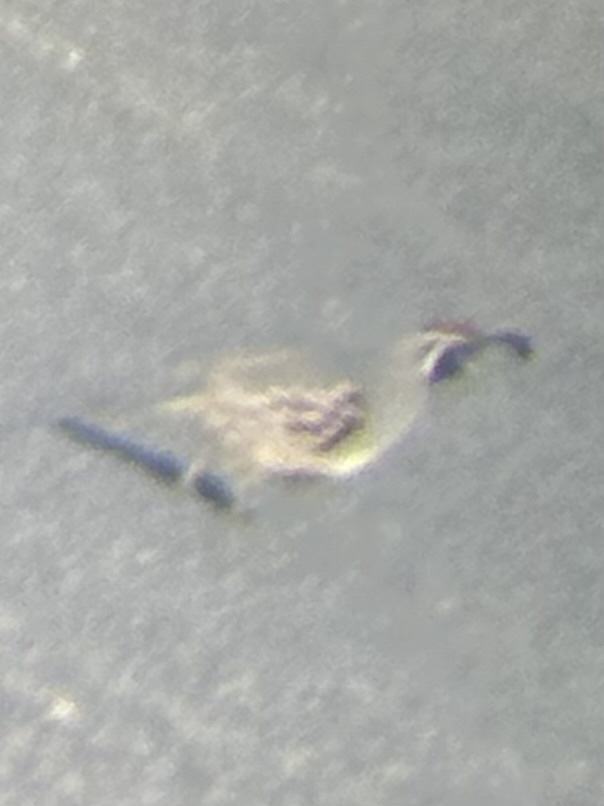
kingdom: Animalia
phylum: Chordata
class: Aves
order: Galliformes
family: Odontophoridae
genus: Callipepla
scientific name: Callipepla gambelii
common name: Gambel's quail
